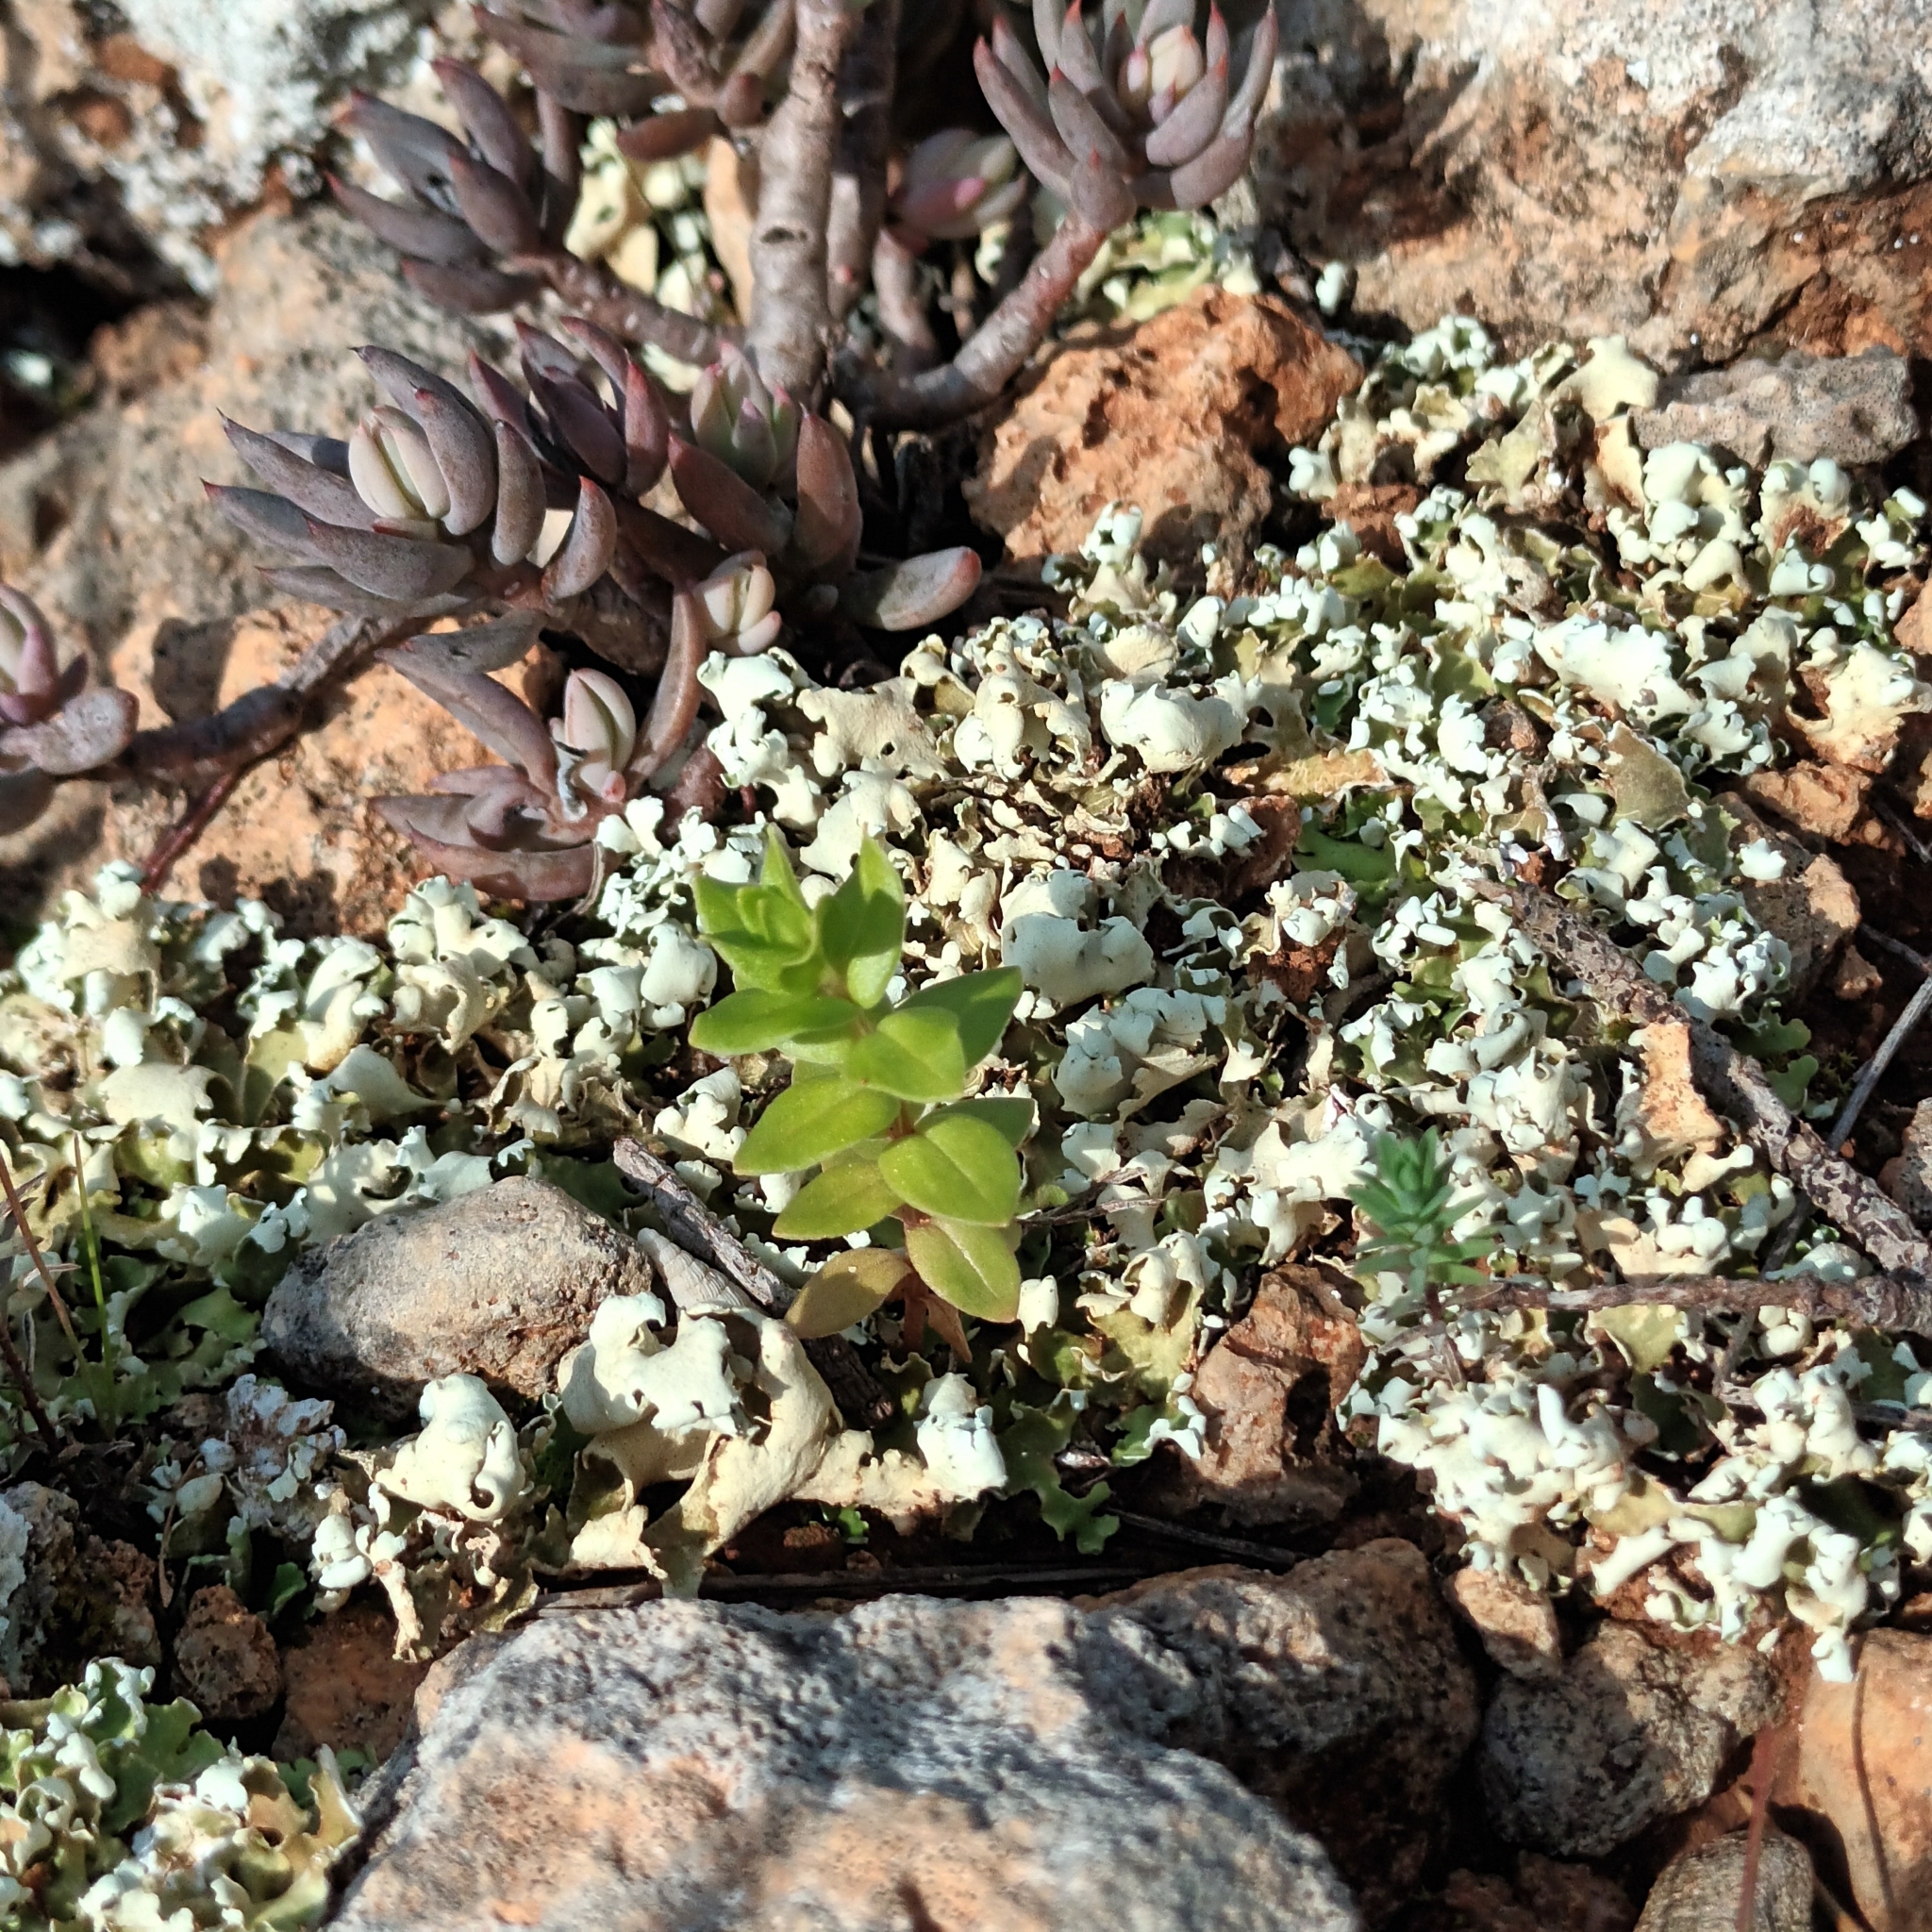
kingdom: Fungi
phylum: Ascomycota
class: Lecanoromycetes
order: Lecanorales
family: Cladoniaceae
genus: Cladonia
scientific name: Cladonia foliacea
